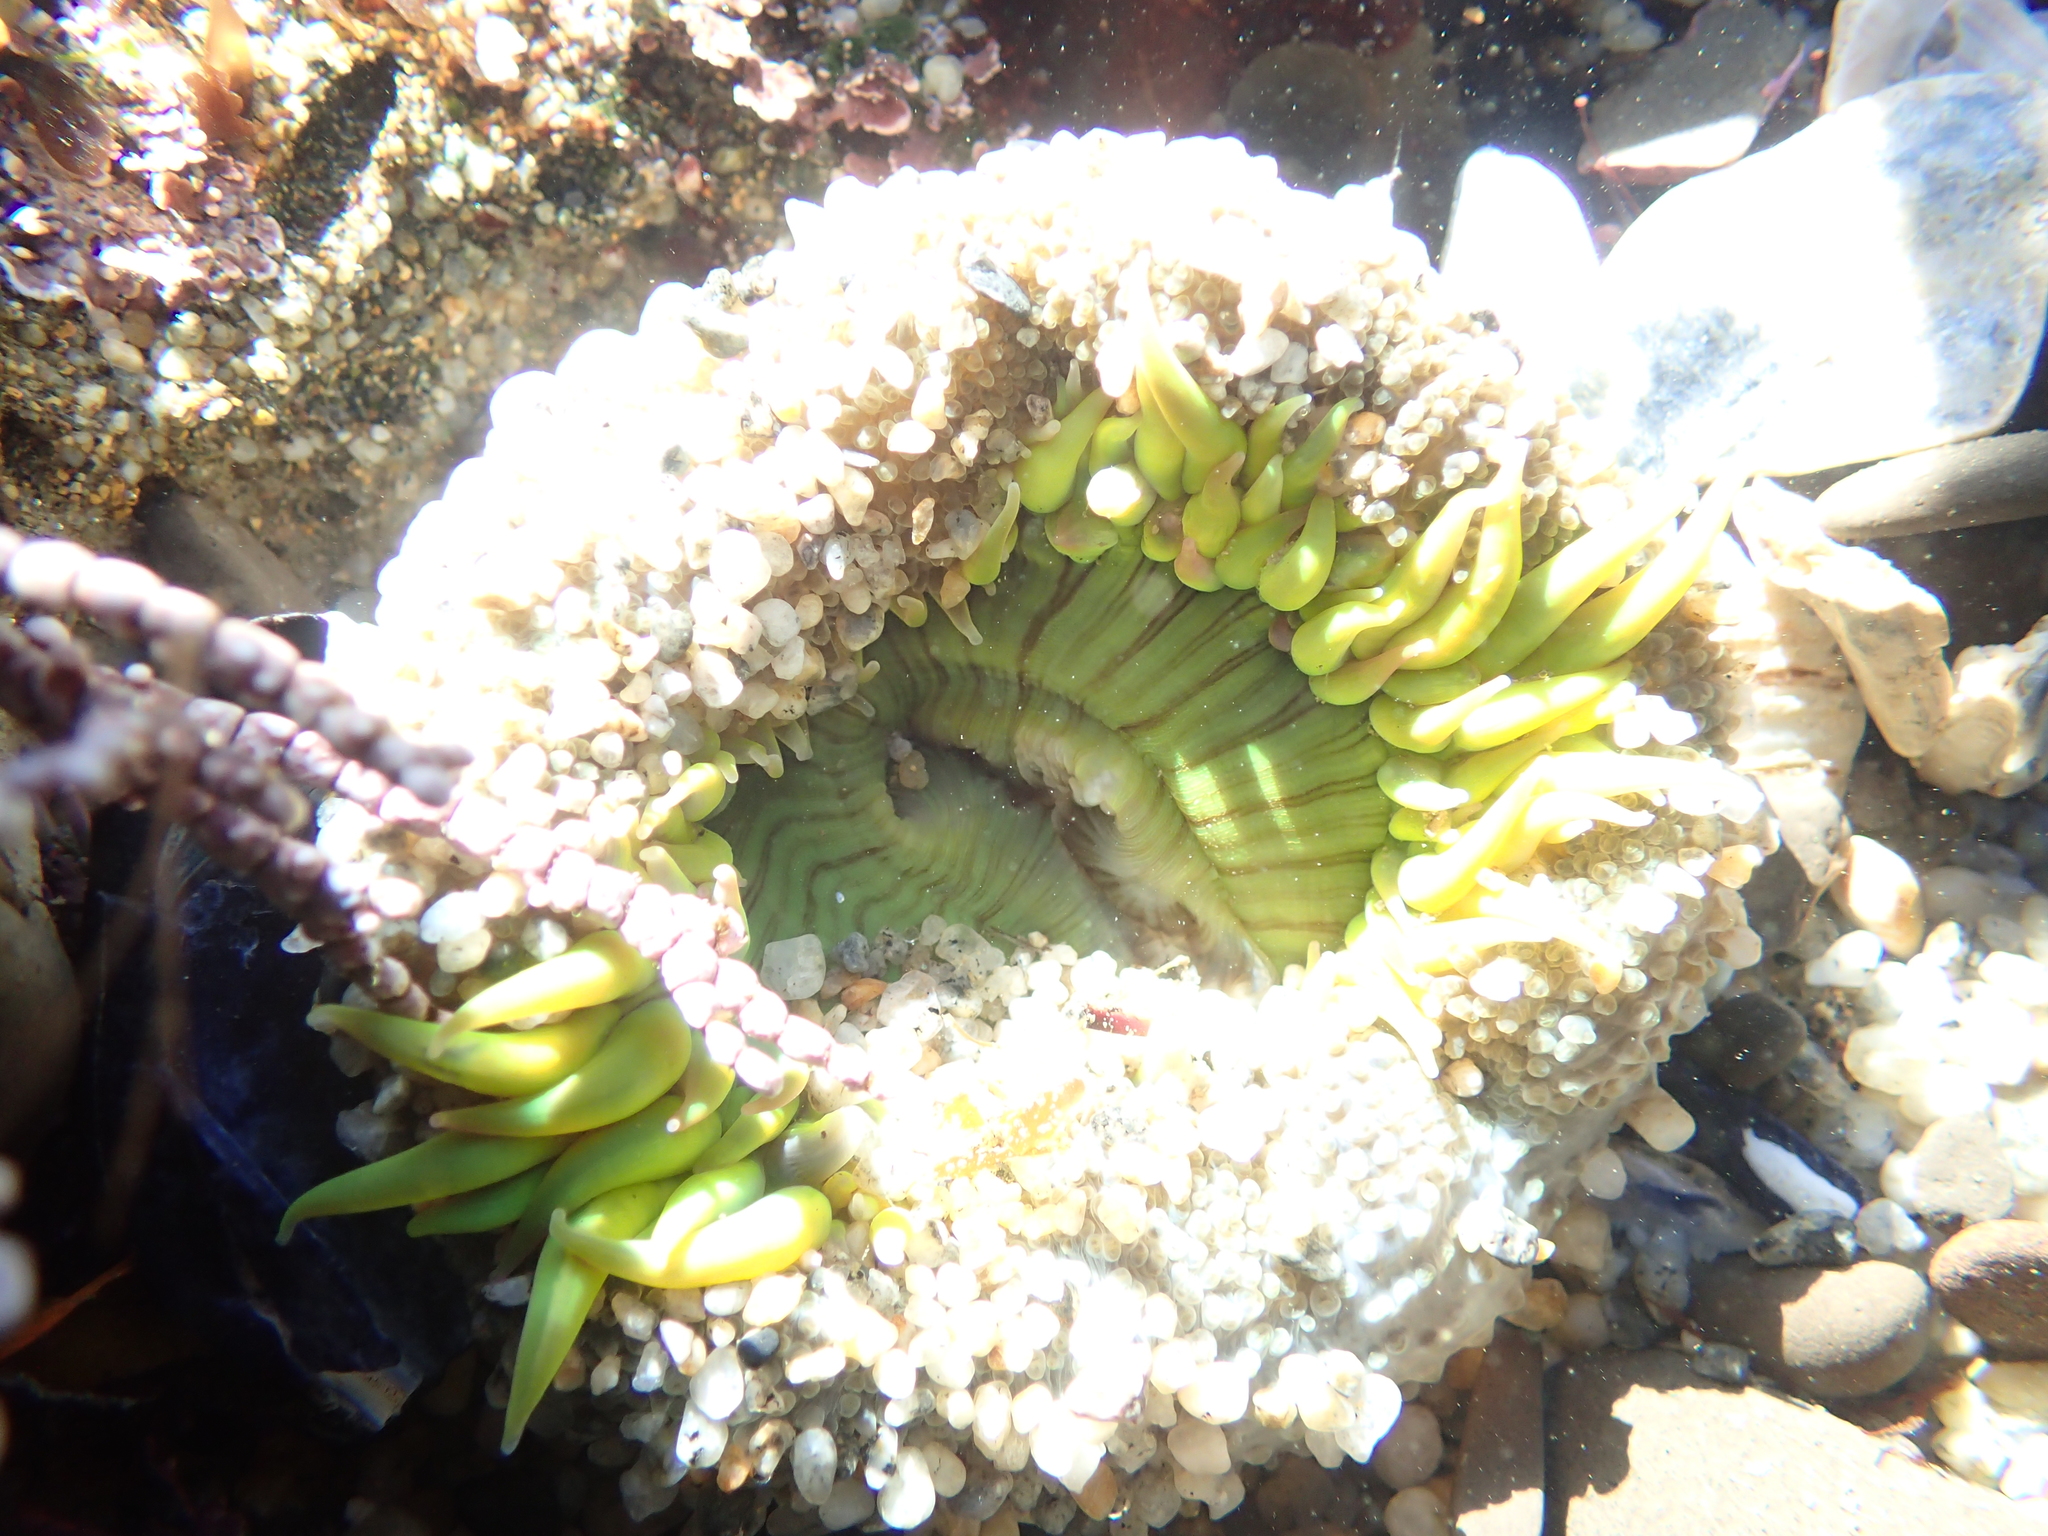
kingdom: Animalia
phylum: Cnidaria
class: Anthozoa
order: Actiniaria
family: Actiniidae
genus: Anthopleura
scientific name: Anthopleura sola
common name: Sun anemone
